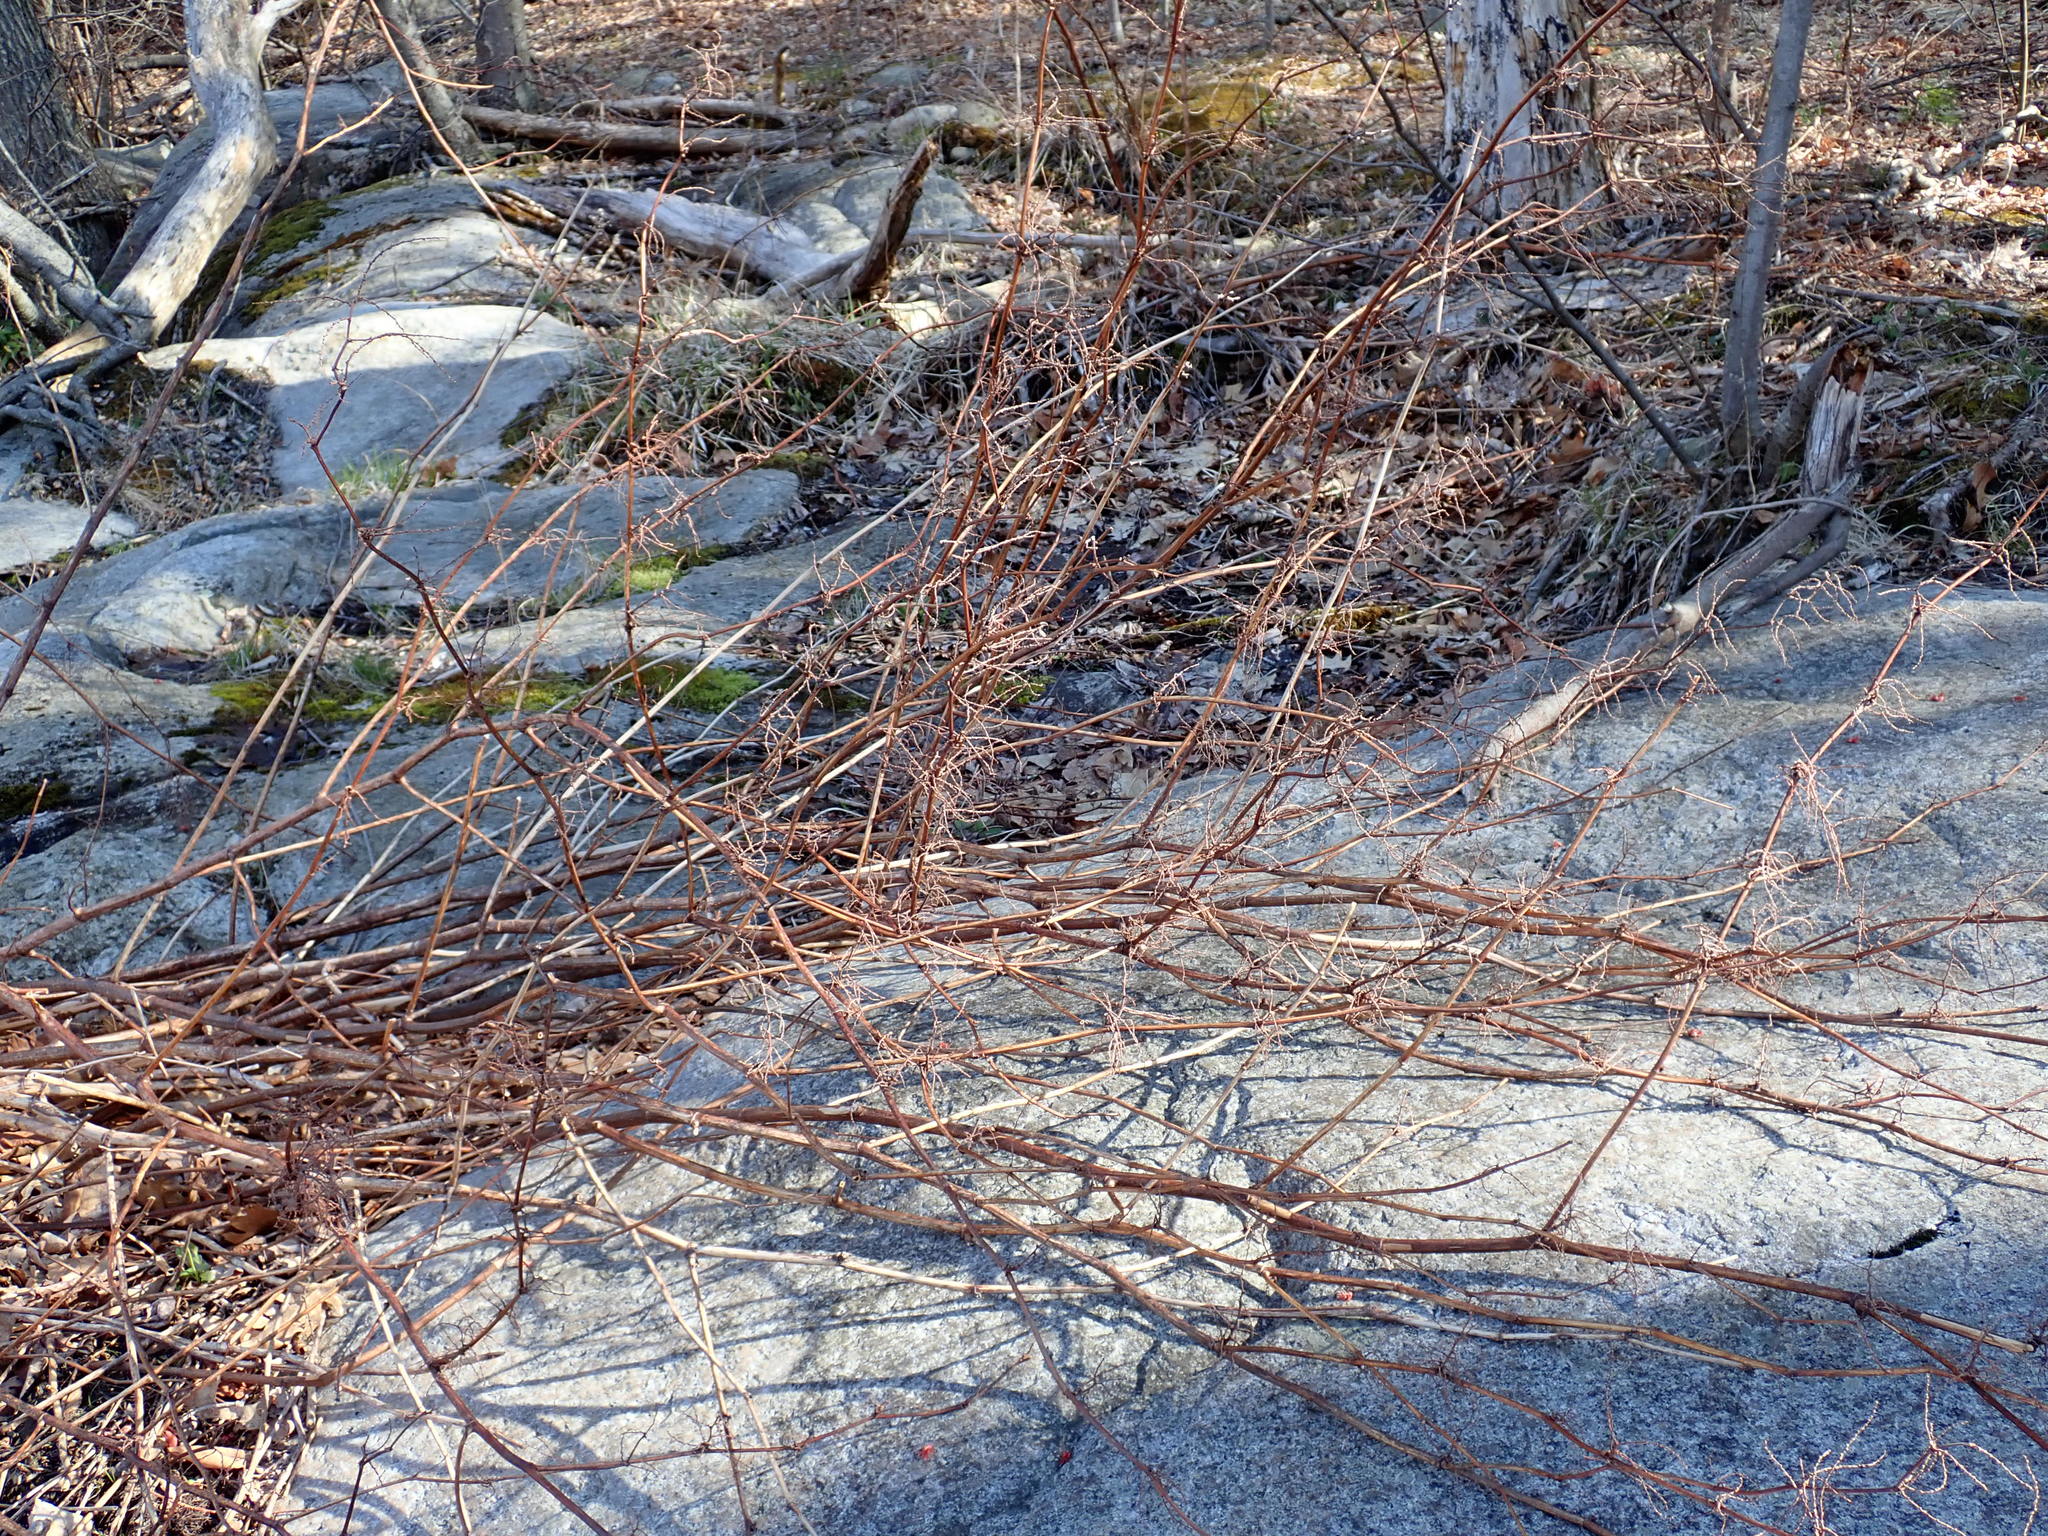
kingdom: Plantae
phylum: Tracheophyta
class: Magnoliopsida
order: Caryophyllales
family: Polygonaceae
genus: Reynoutria
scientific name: Reynoutria
